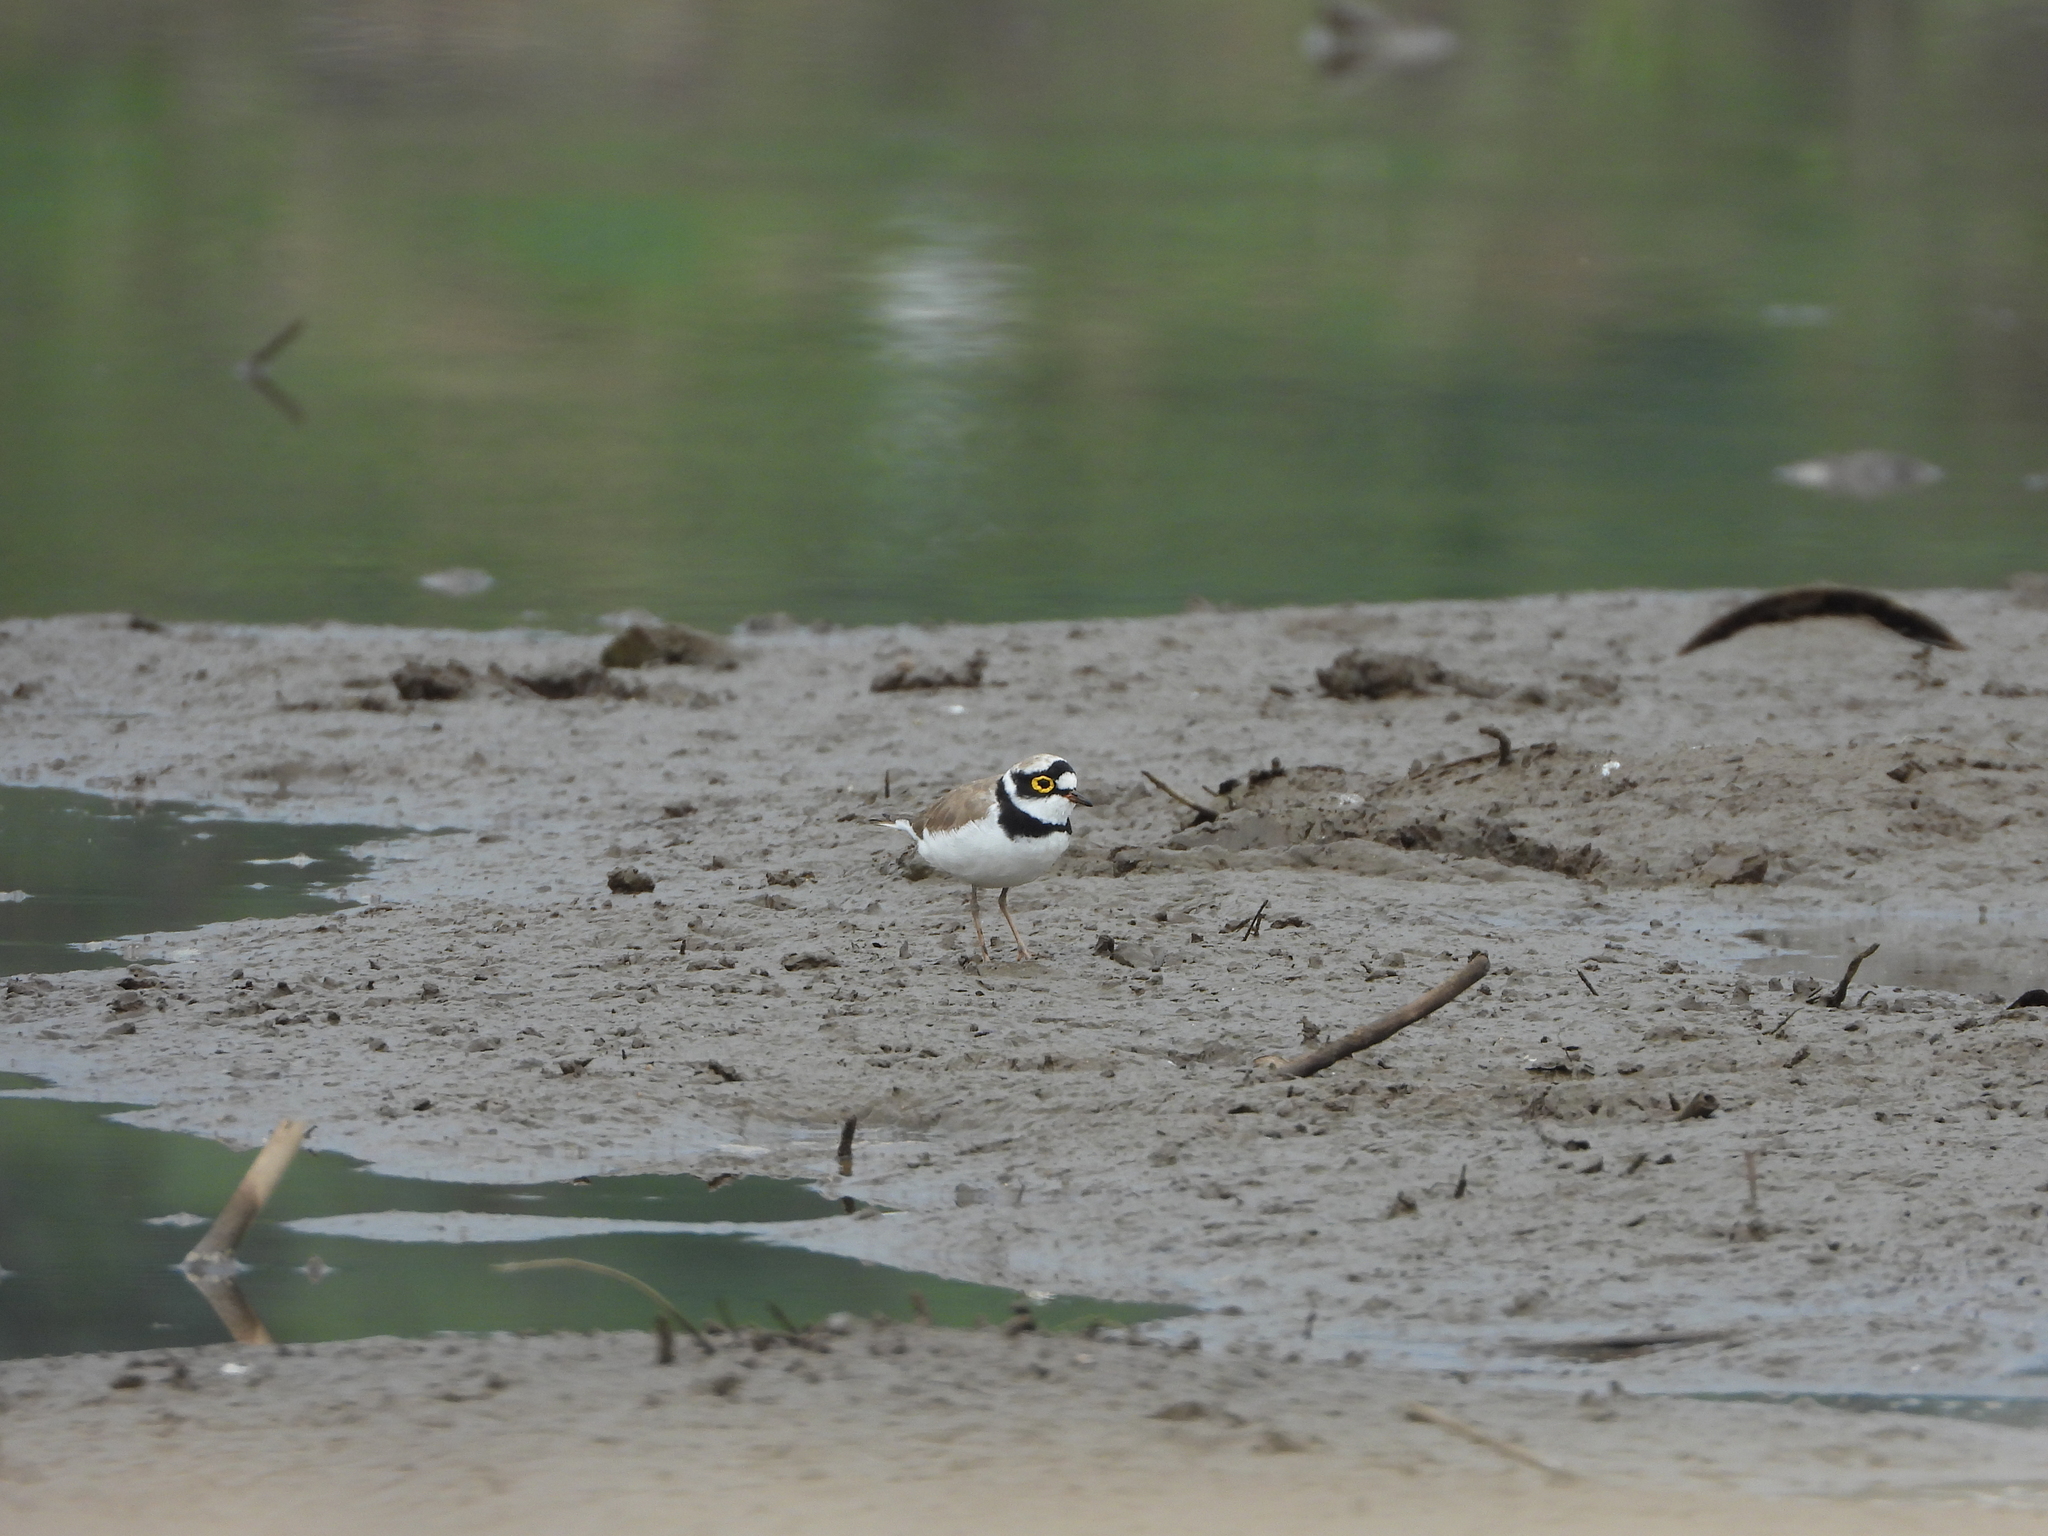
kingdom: Animalia
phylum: Chordata
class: Aves
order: Charadriiformes
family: Charadriidae
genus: Charadrius
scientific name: Charadrius dubius
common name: Little ringed plover
